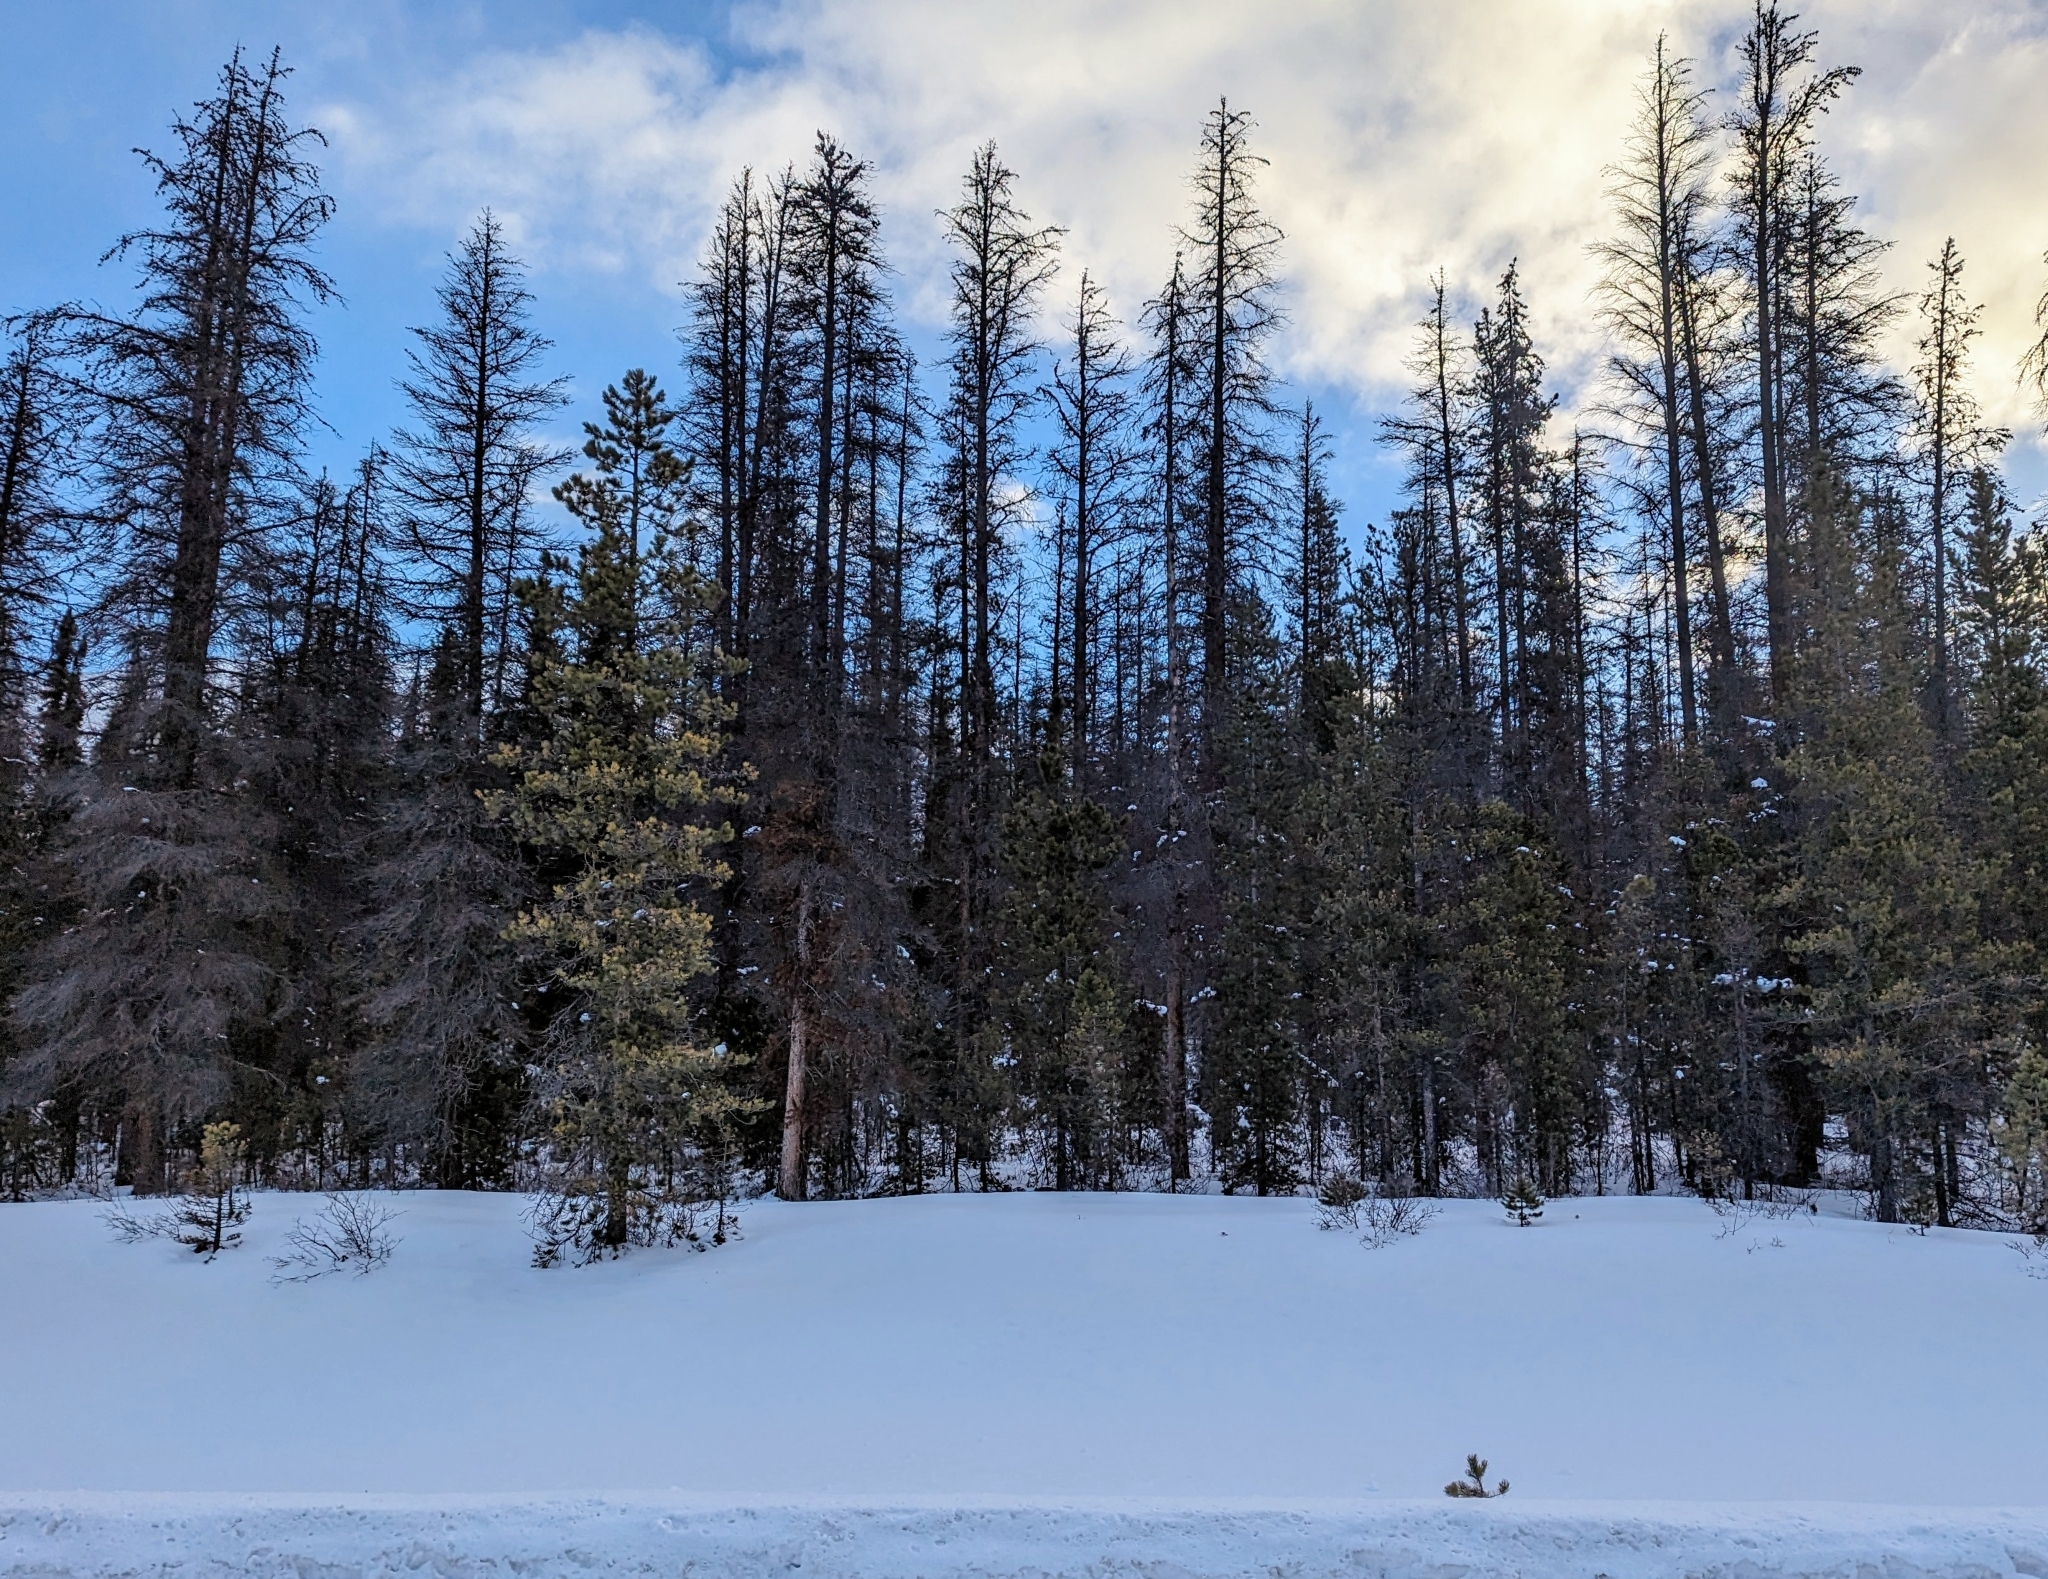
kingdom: Plantae
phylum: Tracheophyta
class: Pinopsida
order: Pinales
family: Pinaceae
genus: Pinus
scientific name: Pinus contorta
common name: Lodgepole pine
